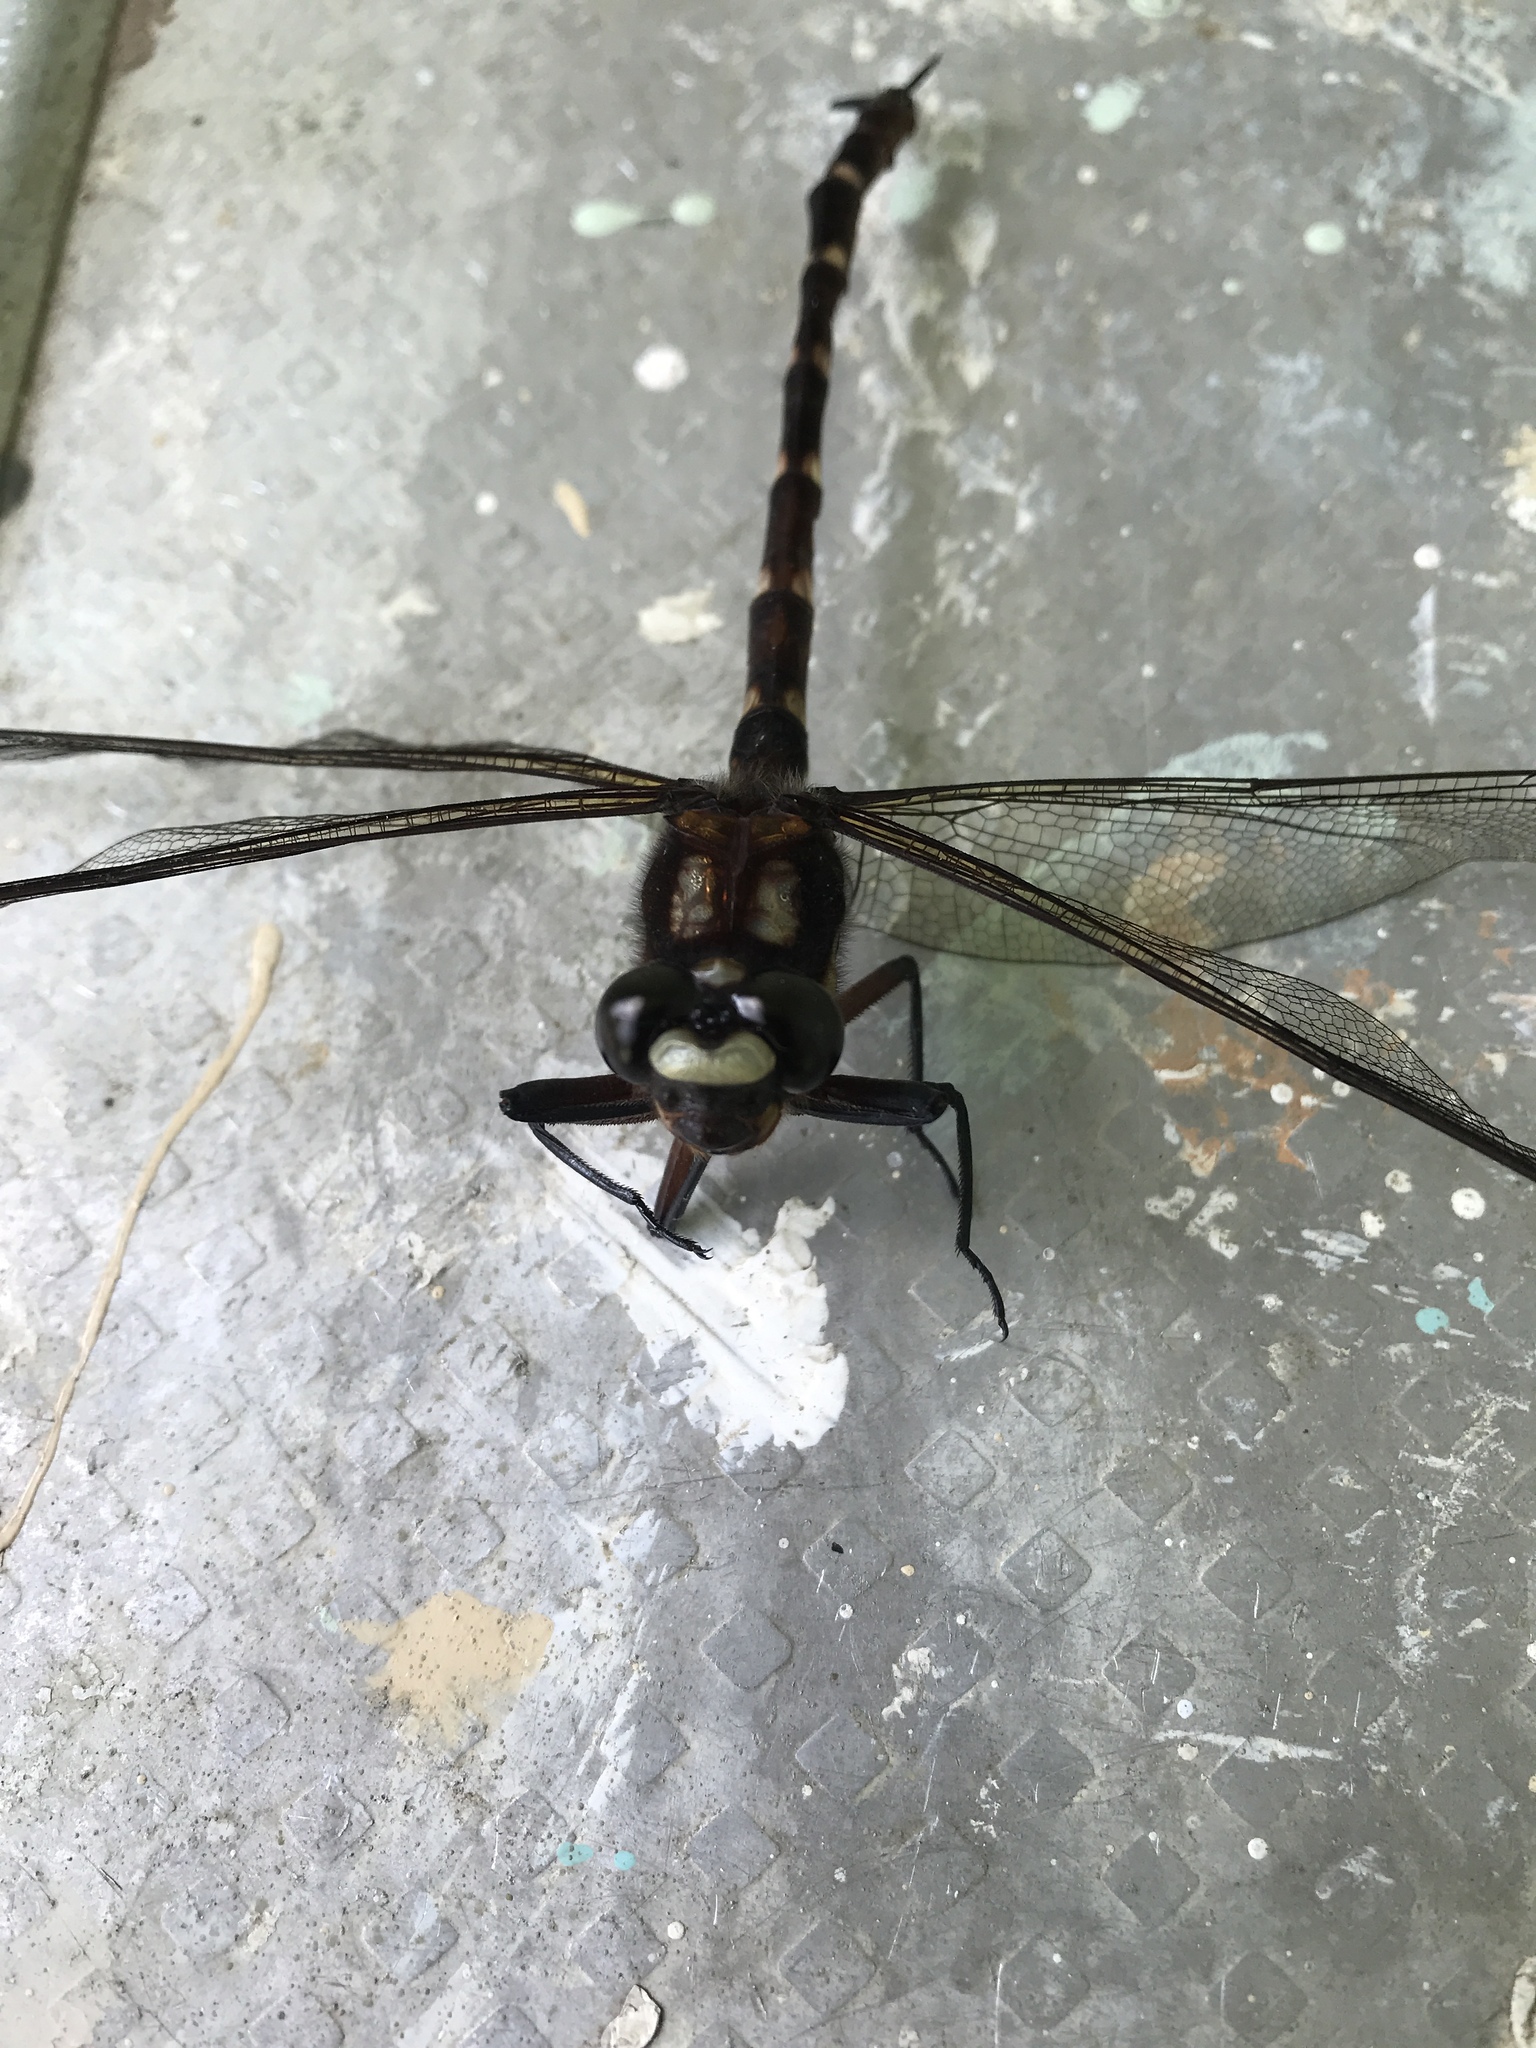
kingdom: Animalia
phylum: Arthropoda
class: Insecta
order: Odonata
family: Petaluridae
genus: Uropetala
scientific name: Uropetala carovei
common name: Bush giant dragonfly
